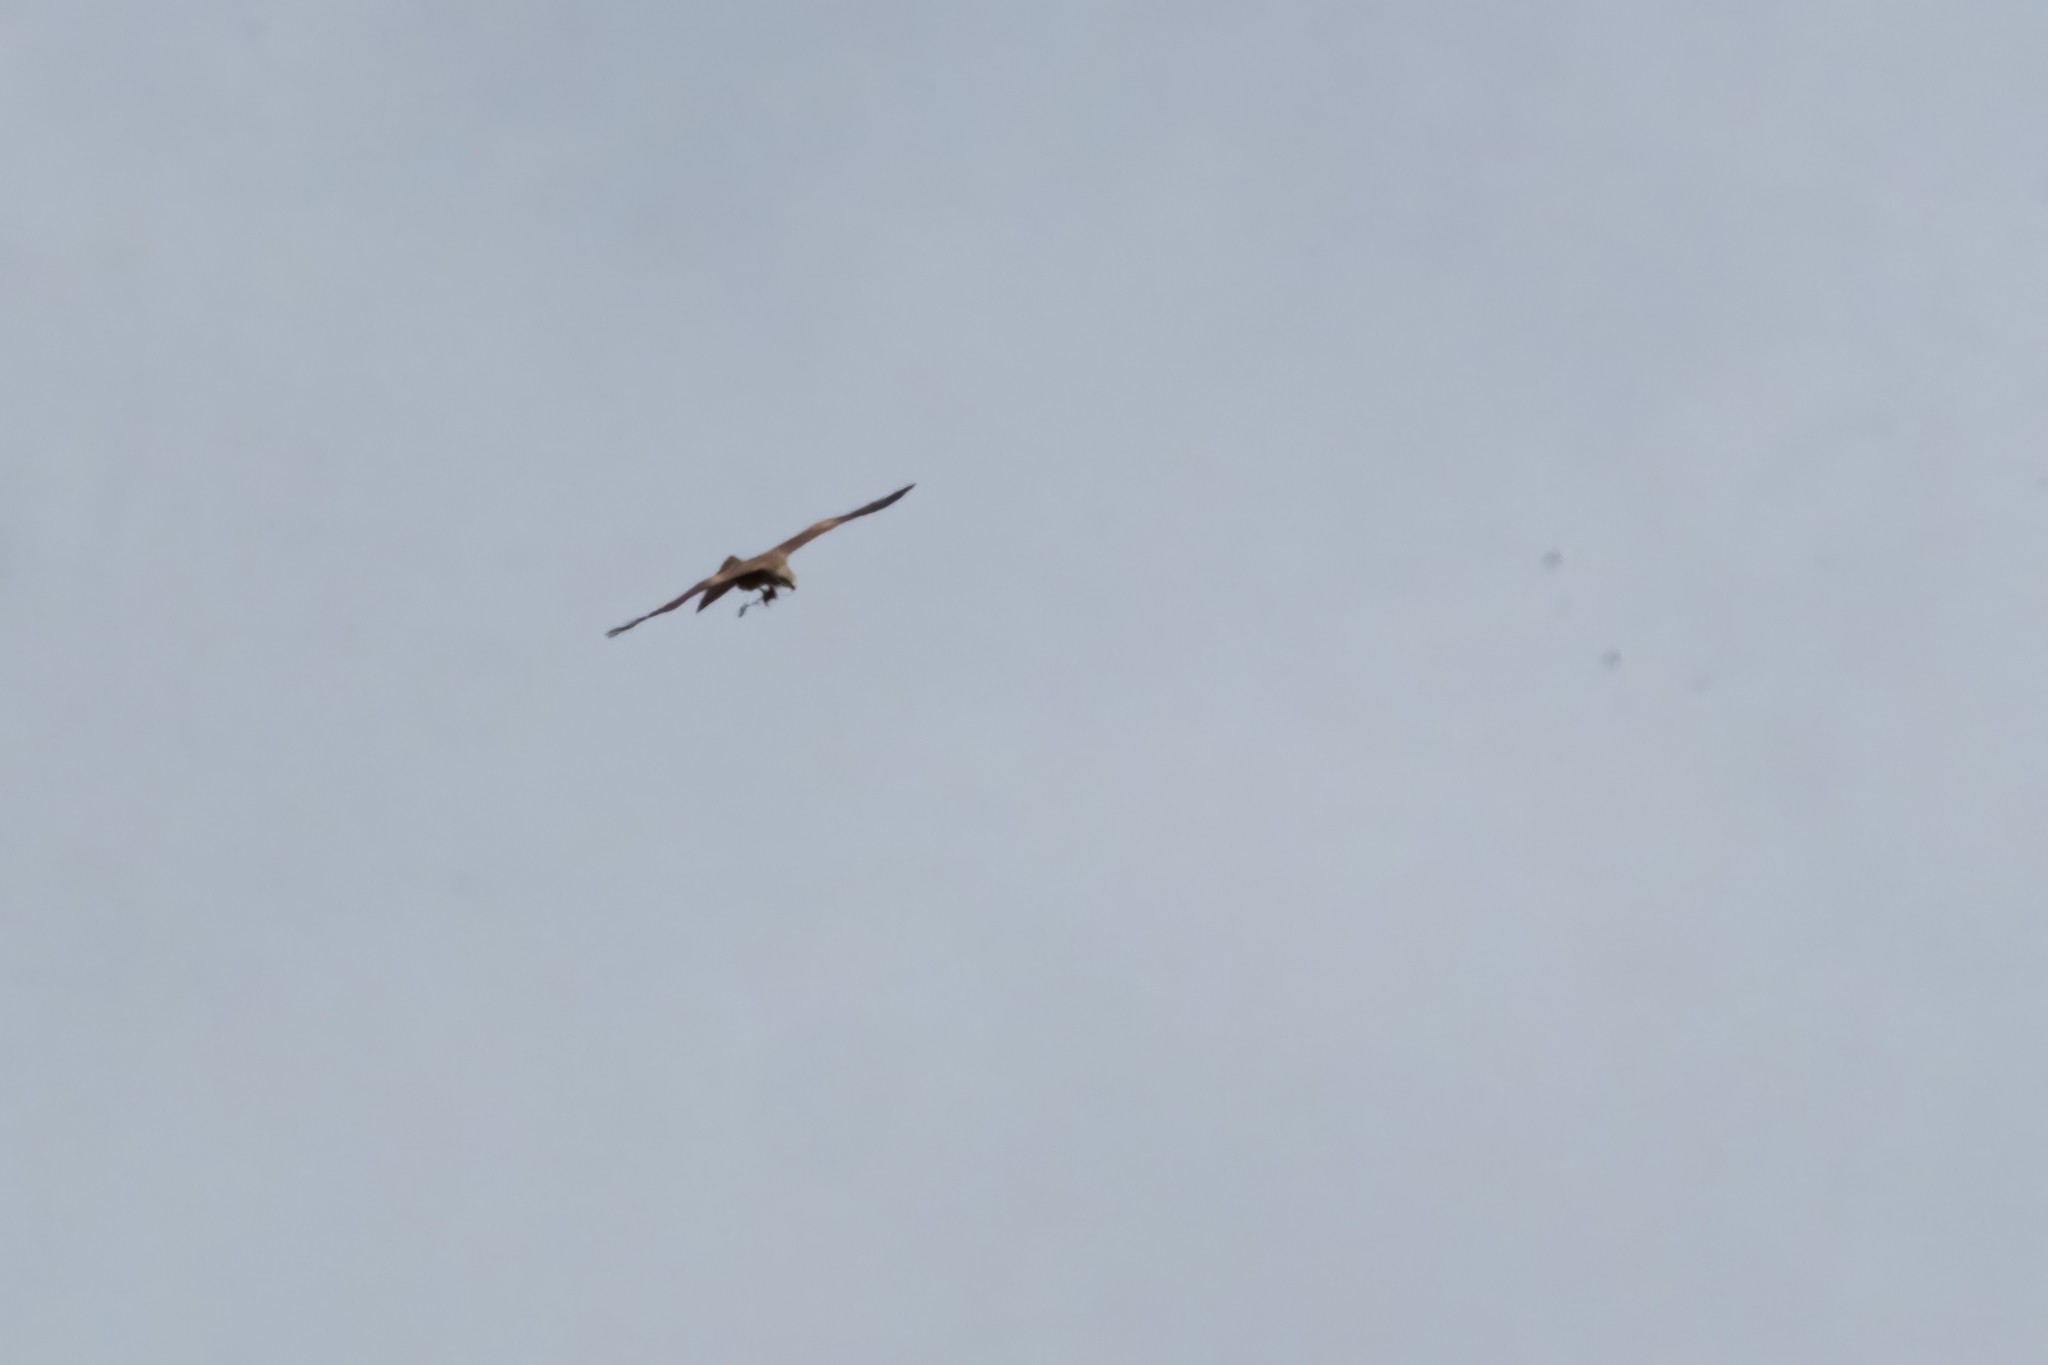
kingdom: Animalia
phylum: Chordata
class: Aves
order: Accipitriformes
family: Accipitridae
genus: Milvus
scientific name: Milvus migrans
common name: Black kite
